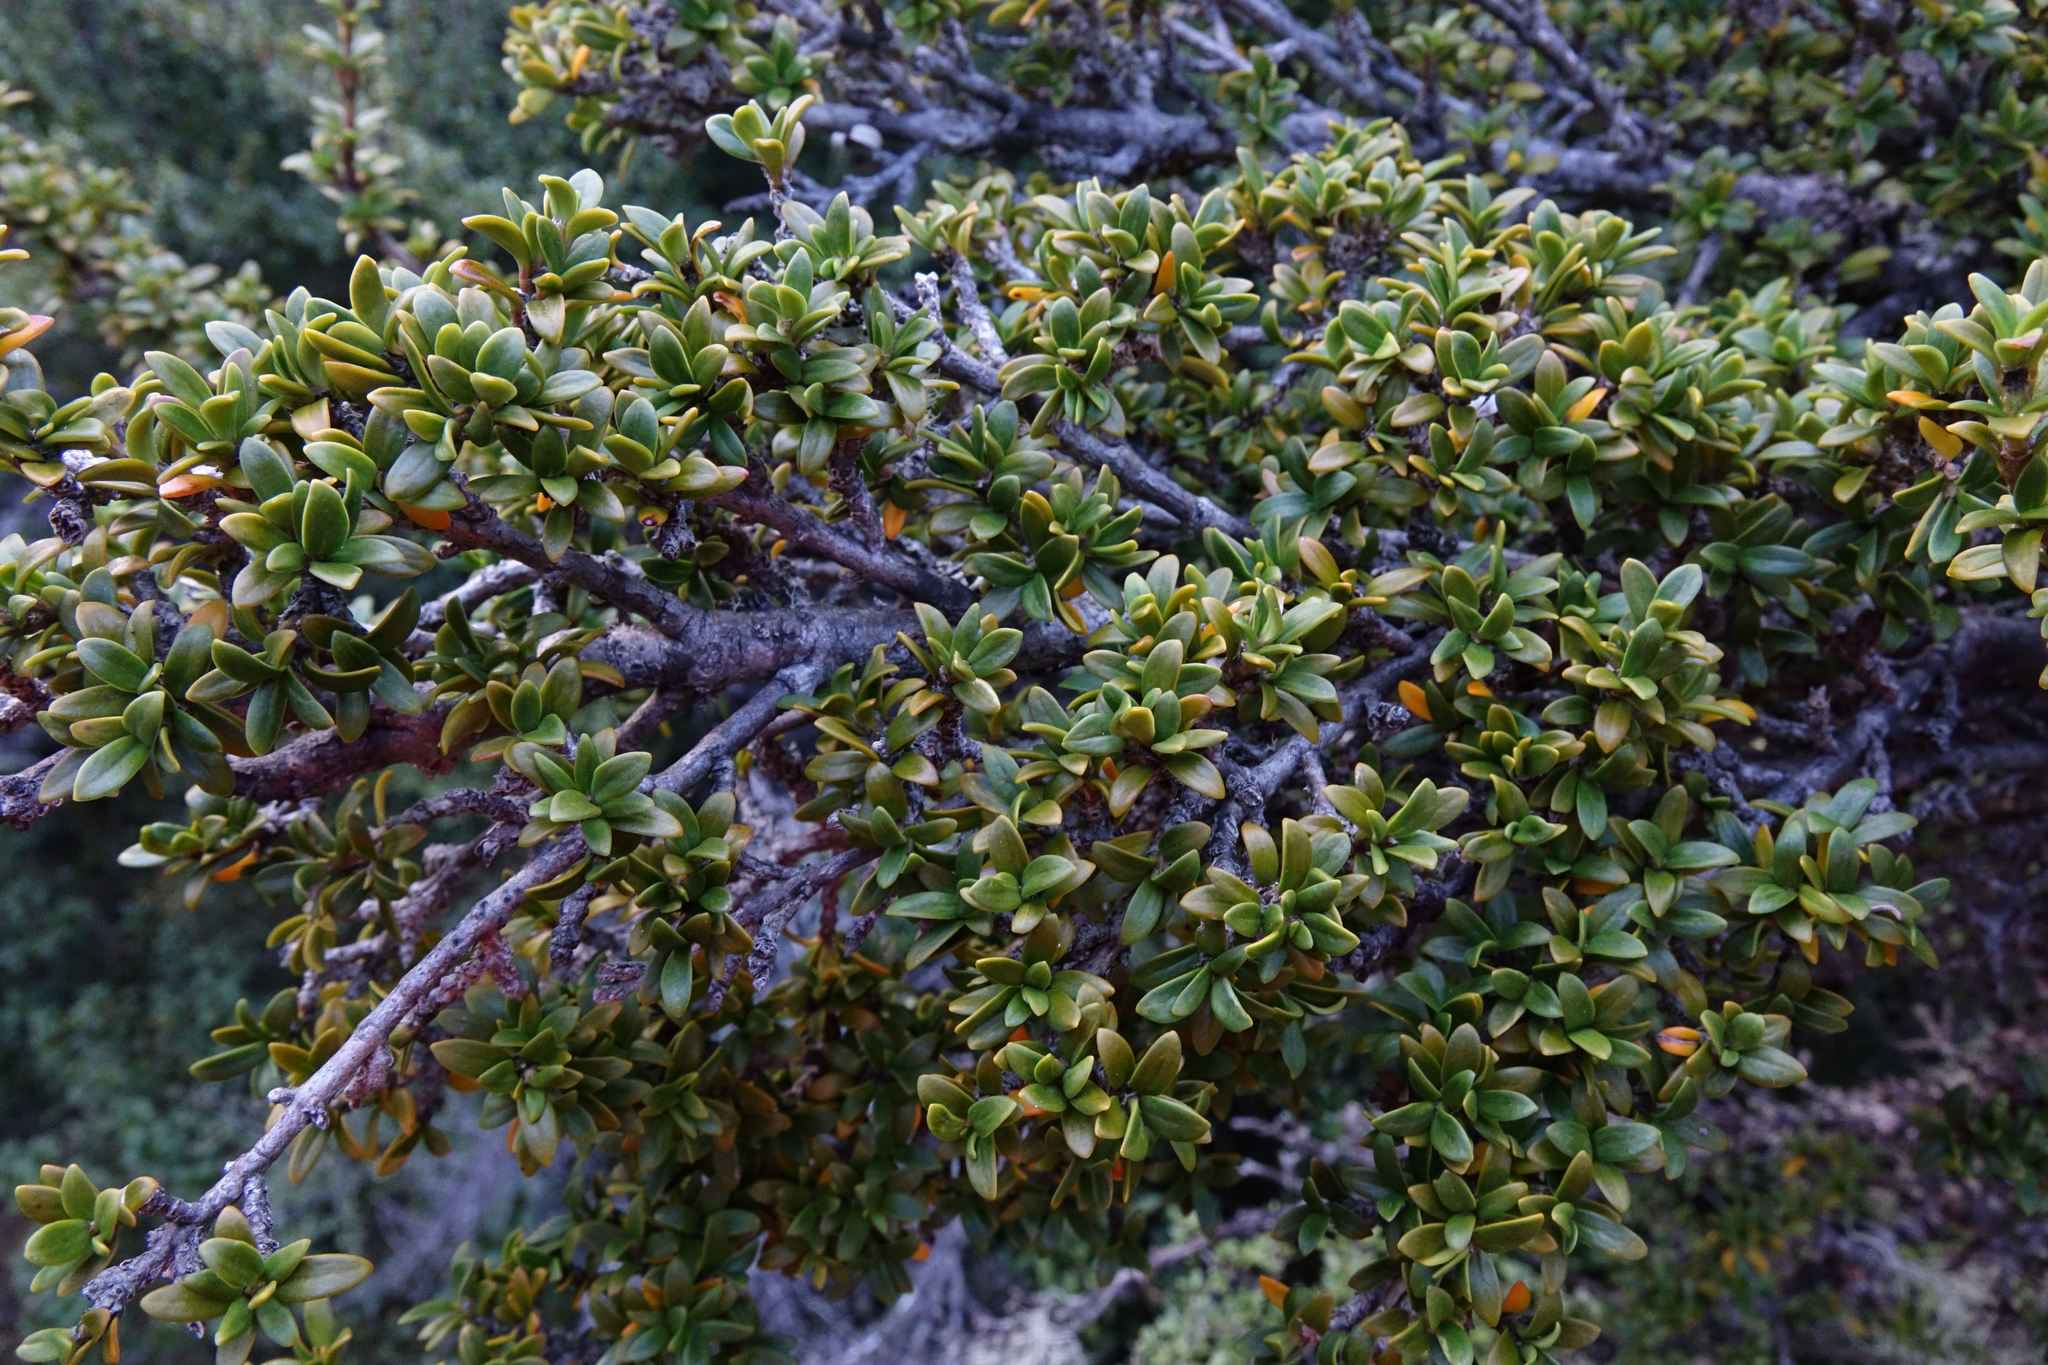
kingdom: Plantae
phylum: Tracheophyta
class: Magnoliopsida
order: Gentianales
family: Rubiaceae
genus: Coprosma
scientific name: Coprosma pseudocuneata
